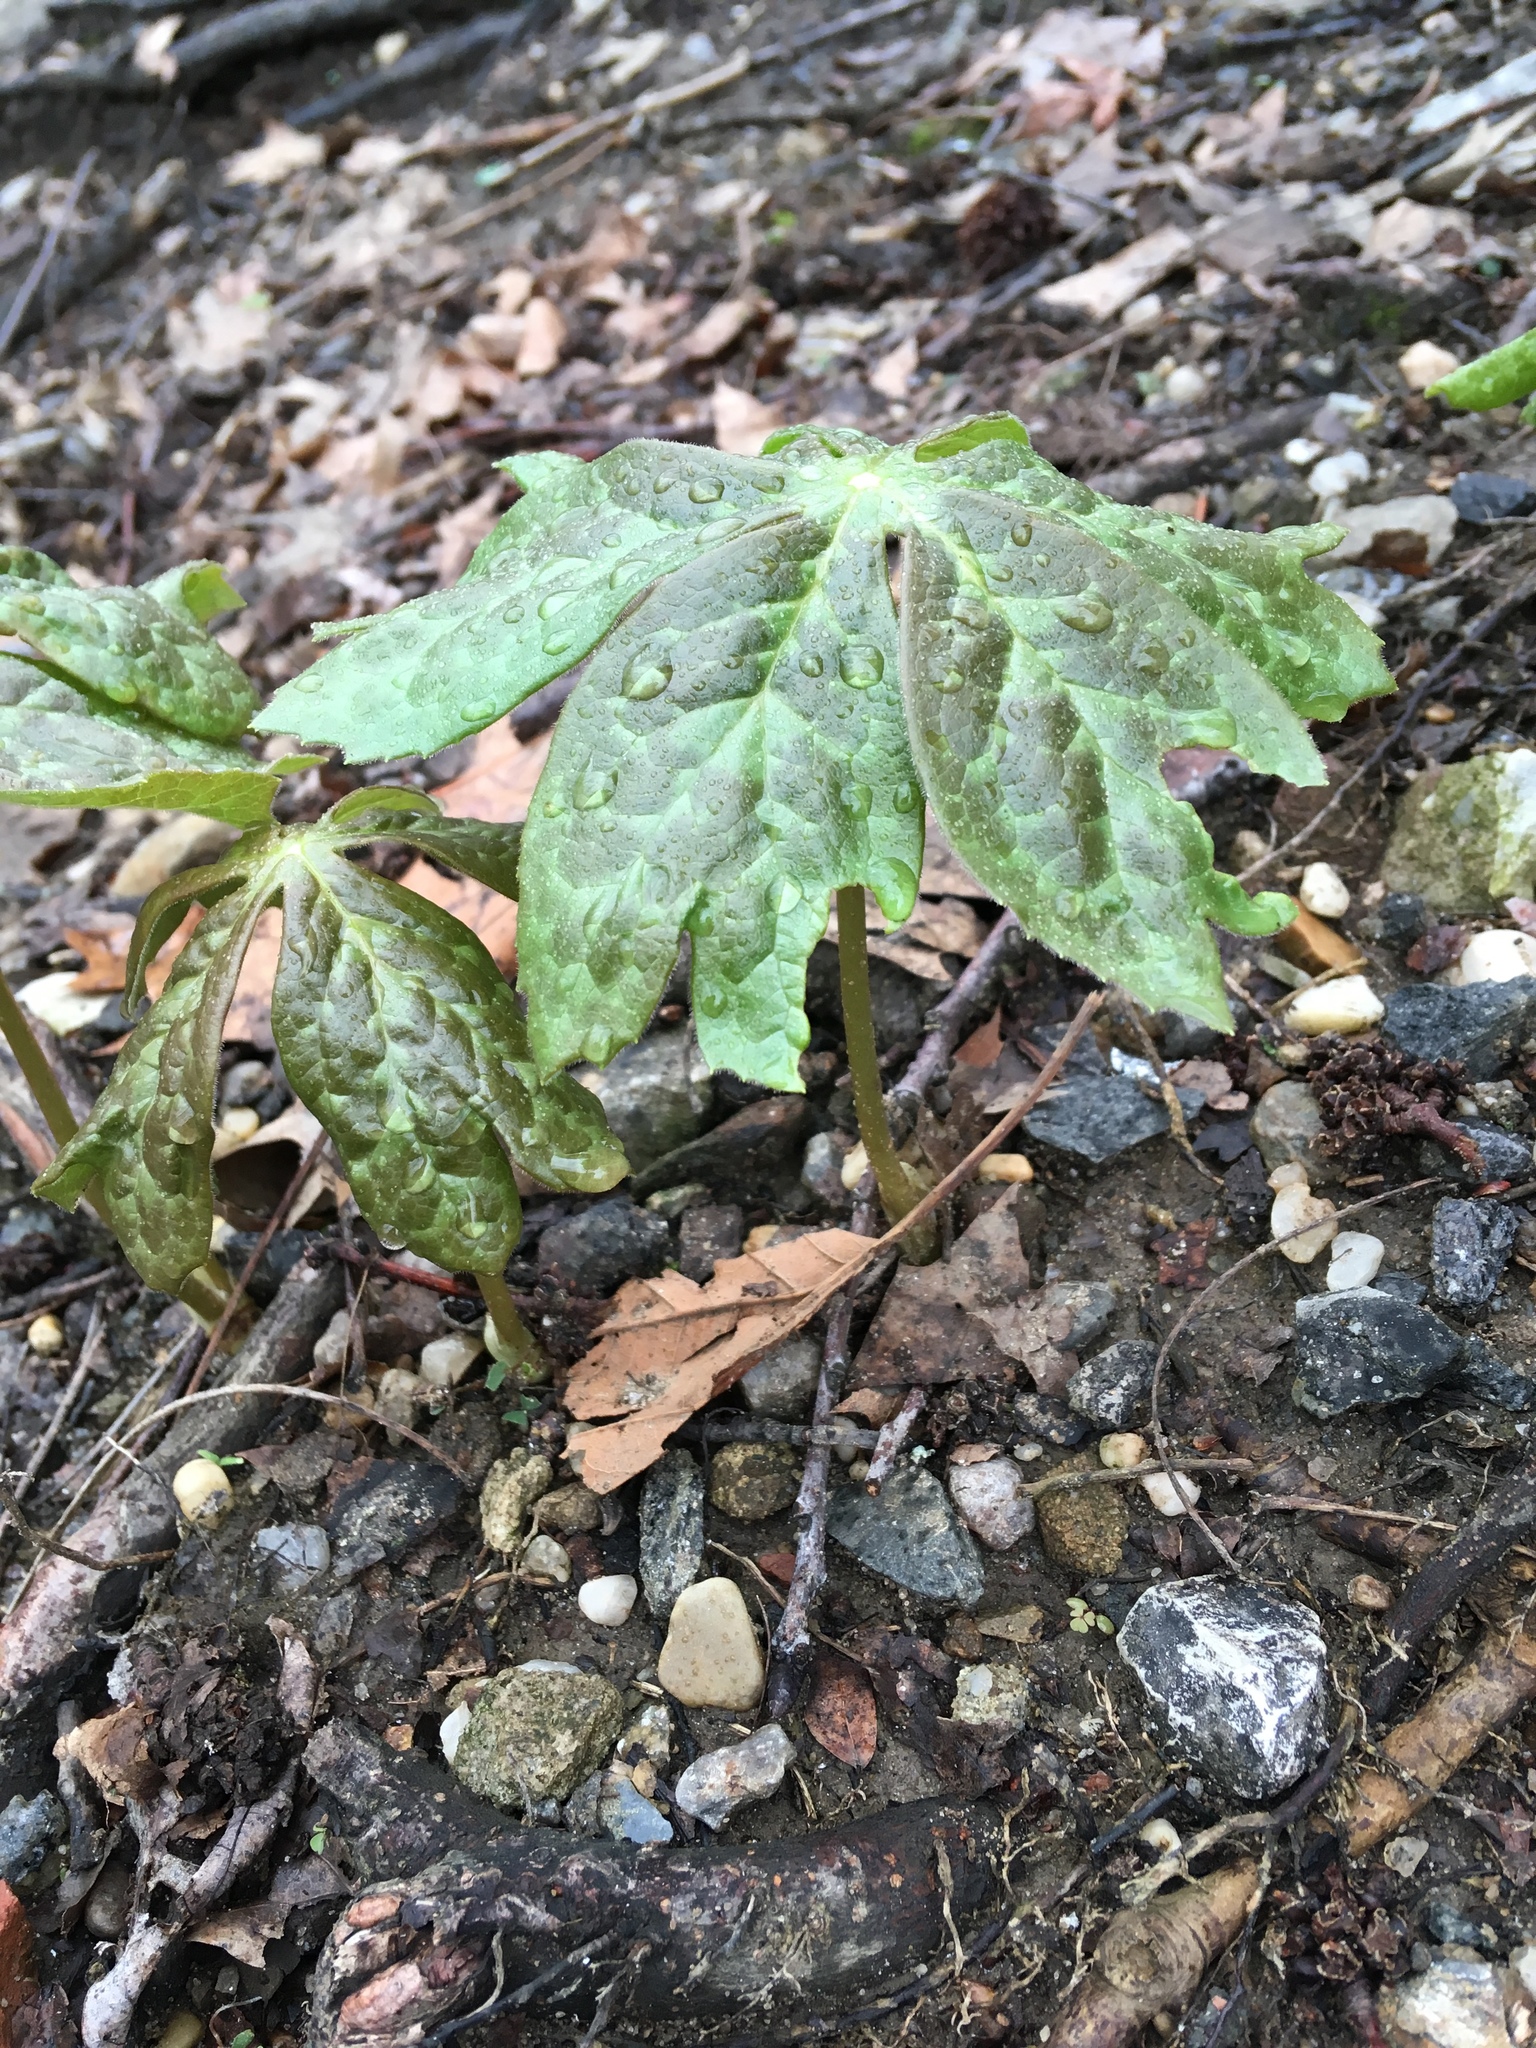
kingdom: Plantae
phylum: Tracheophyta
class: Magnoliopsida
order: Ranunculales
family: Berberidaceae
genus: Podophyllum
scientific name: Podophyllum peltatum
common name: Wild mandrake
